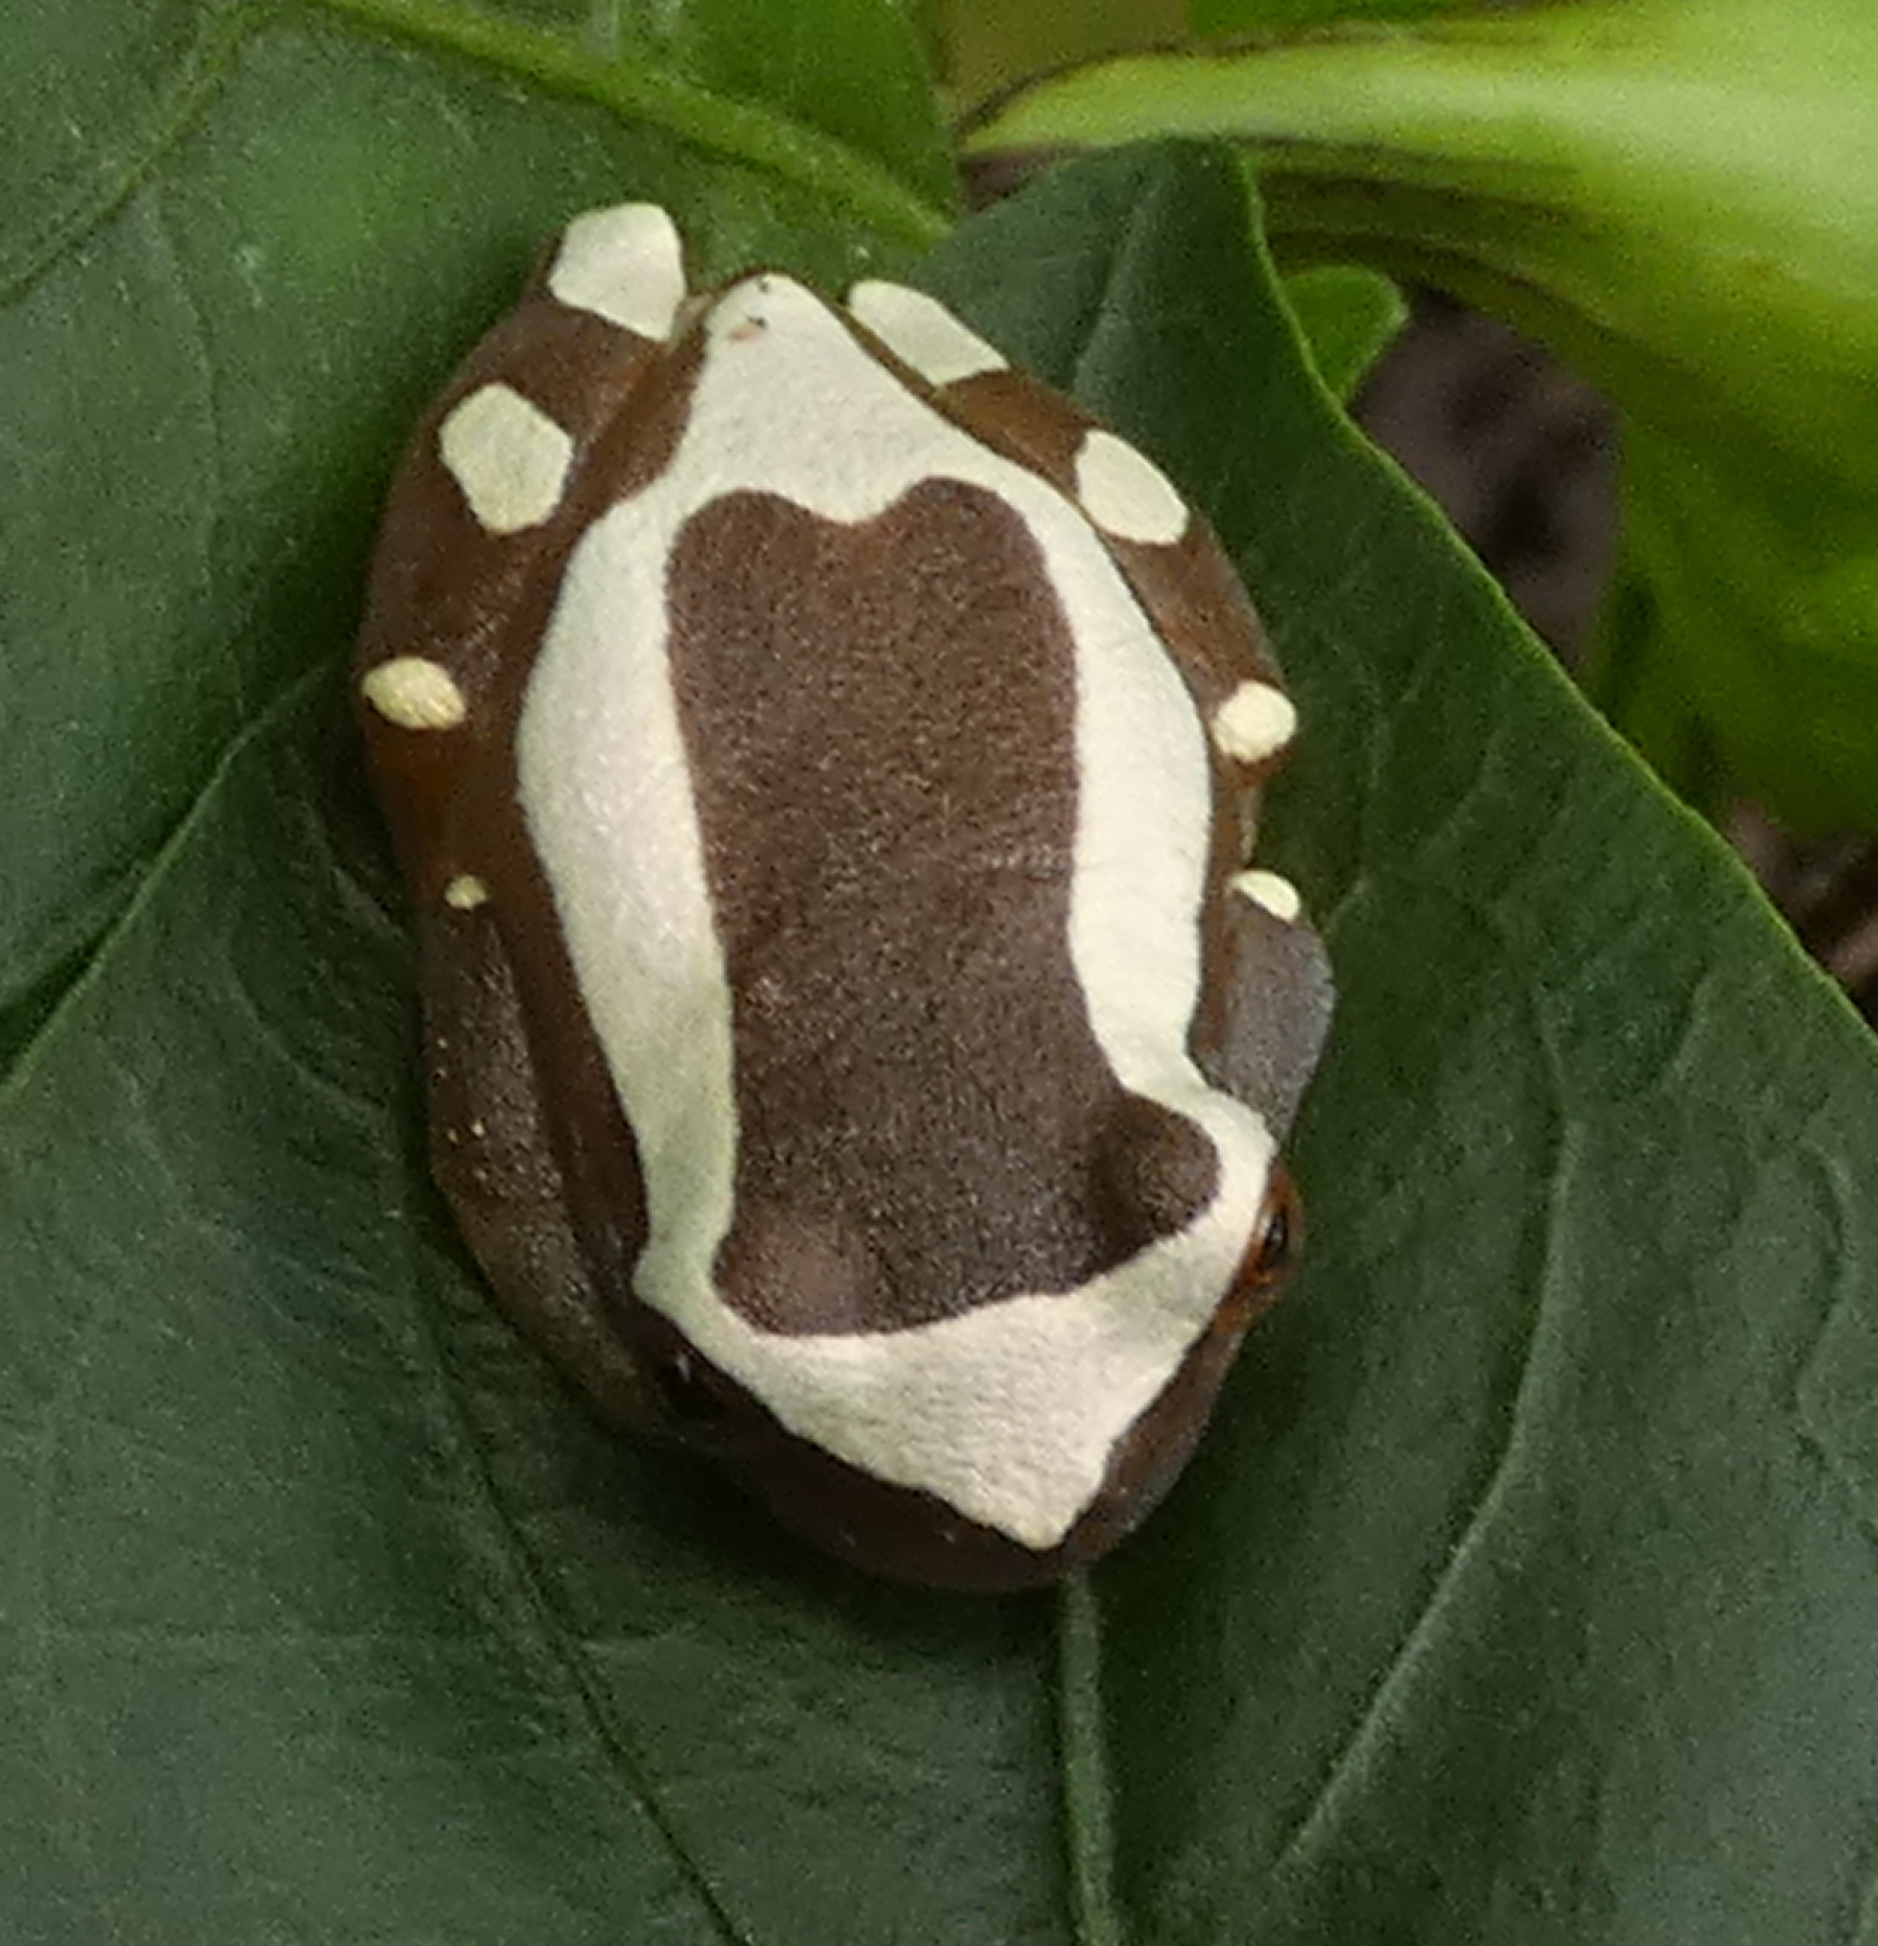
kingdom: Animalia
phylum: Chordata
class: Amphibia
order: Anura
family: Hylidae
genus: Dendropsophus
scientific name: Dendropsophus elegans
